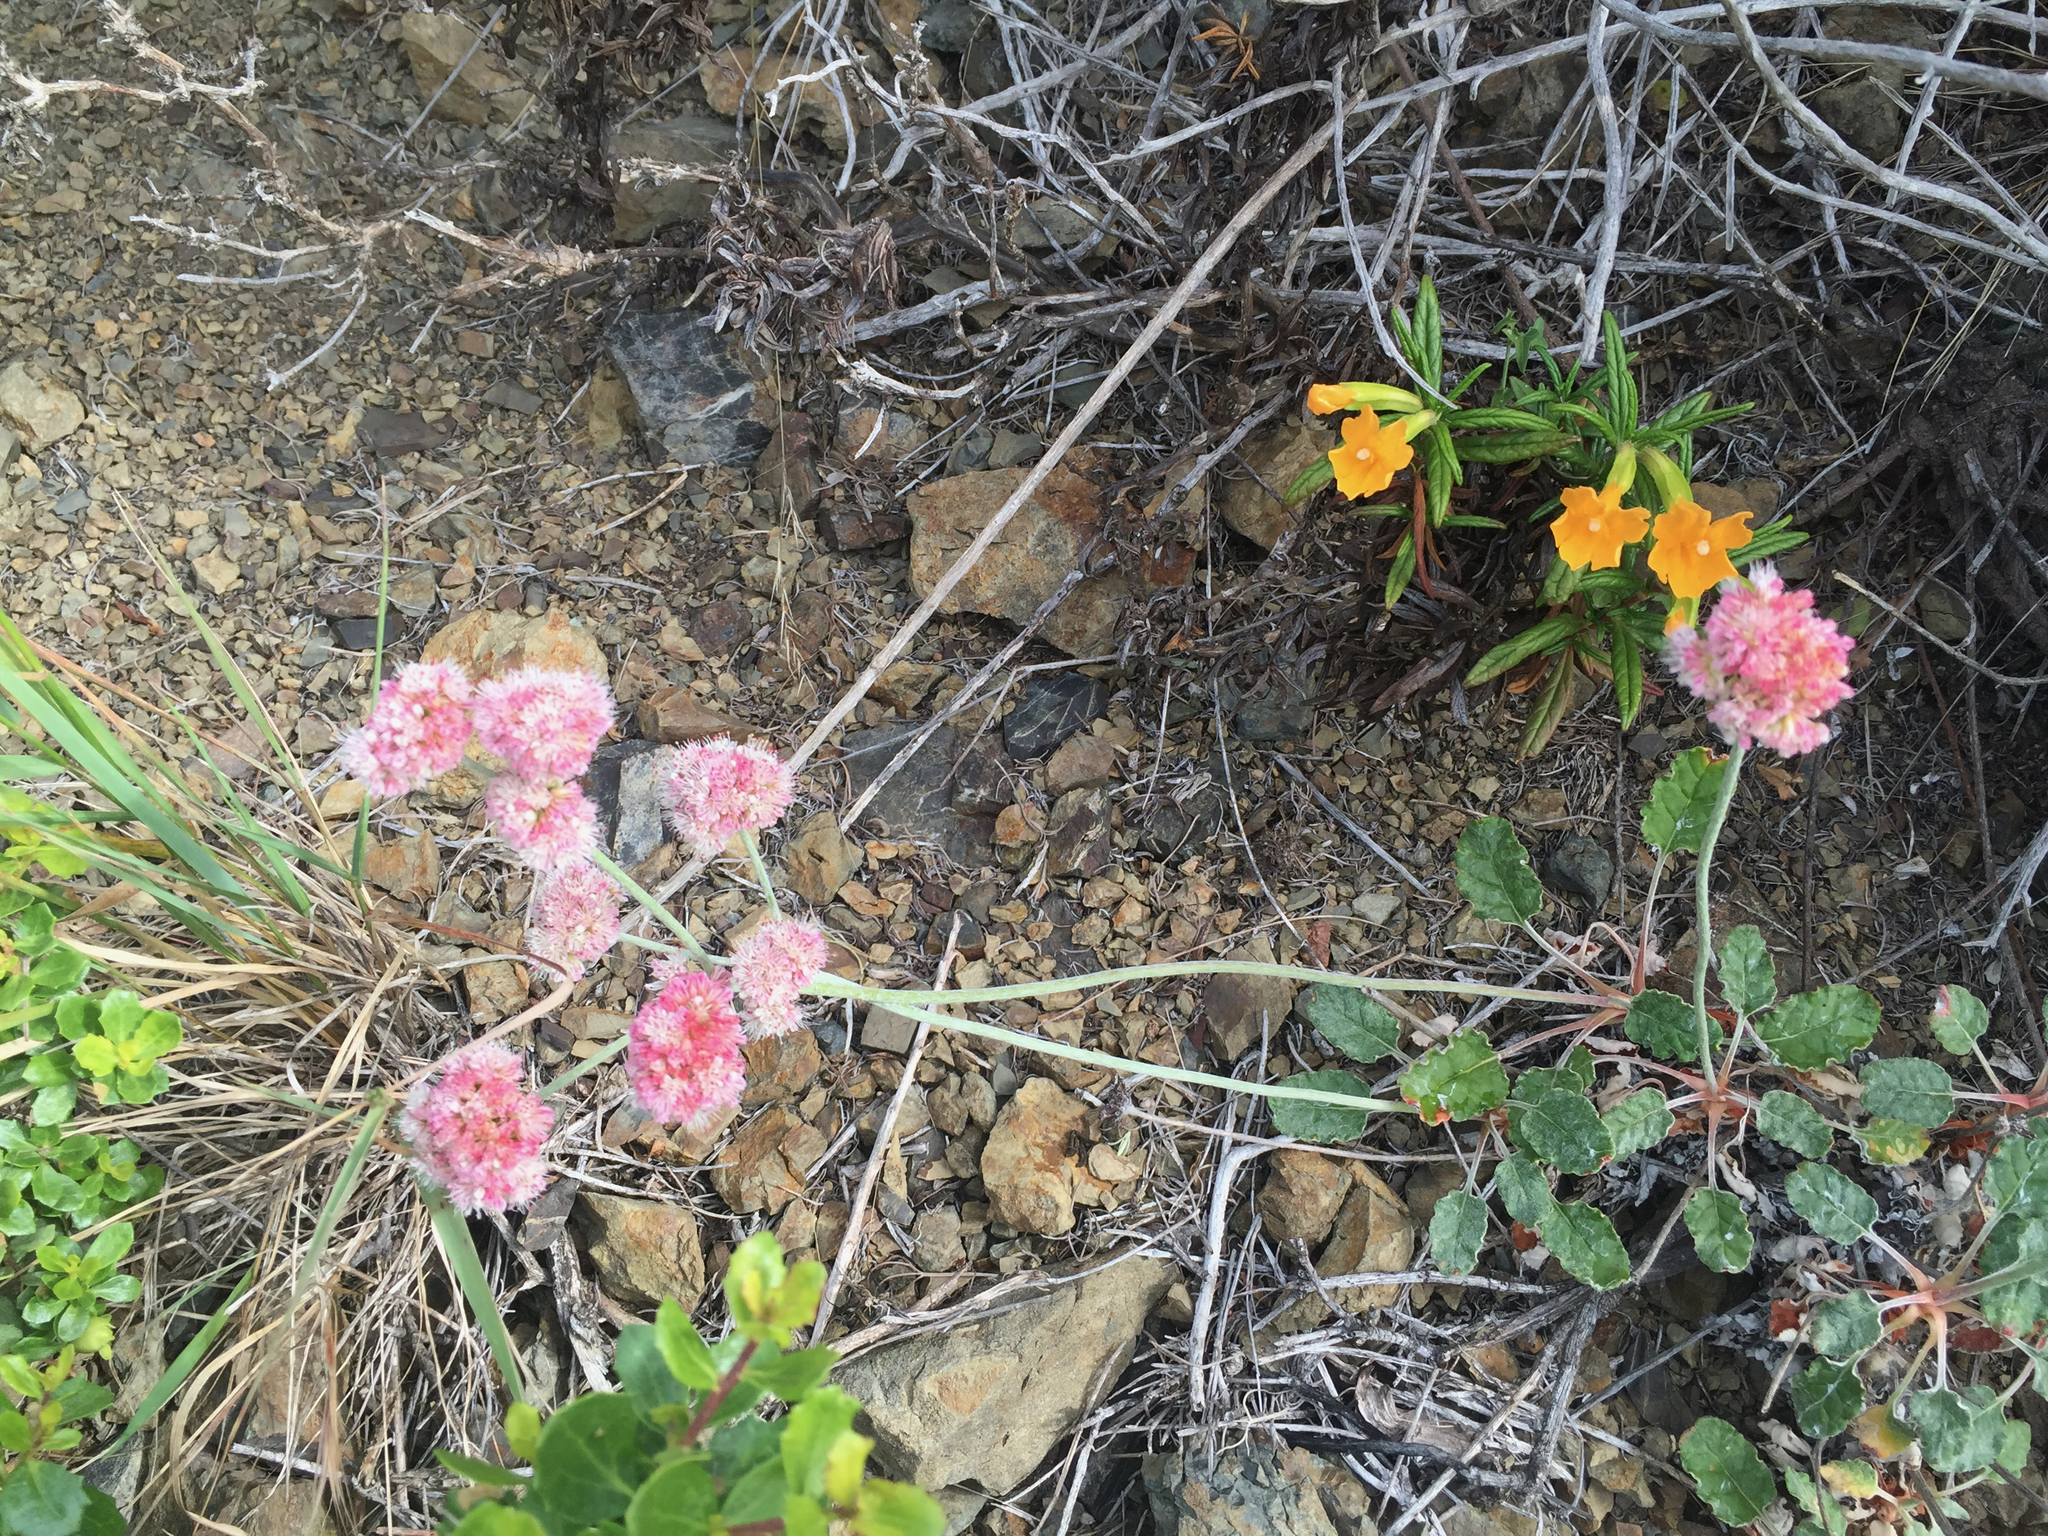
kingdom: Plantae
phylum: Tracheophyta
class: Magnoliopsida
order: Caryophyllales
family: Polygonaceae
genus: Eriogonum
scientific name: Eriogonum latifolium
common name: Seaside wild buckwheat
